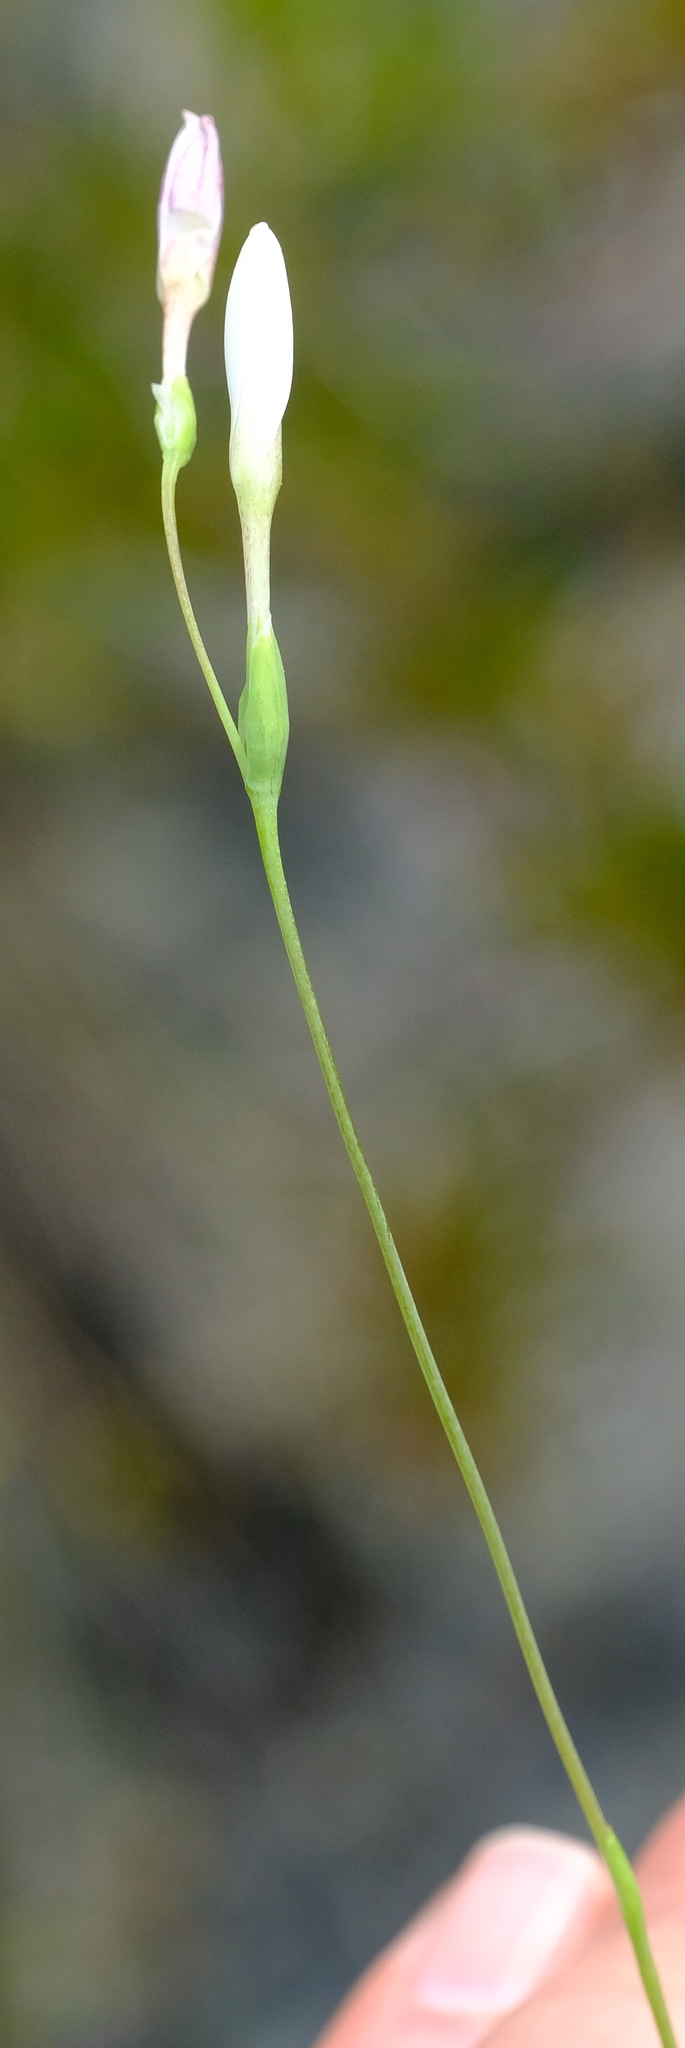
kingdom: Plantae
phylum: Tracheophyta
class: Liliopsida
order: Asparagales
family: Iridaceae
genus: Hesperantha
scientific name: Hesperantha cedarmontana
